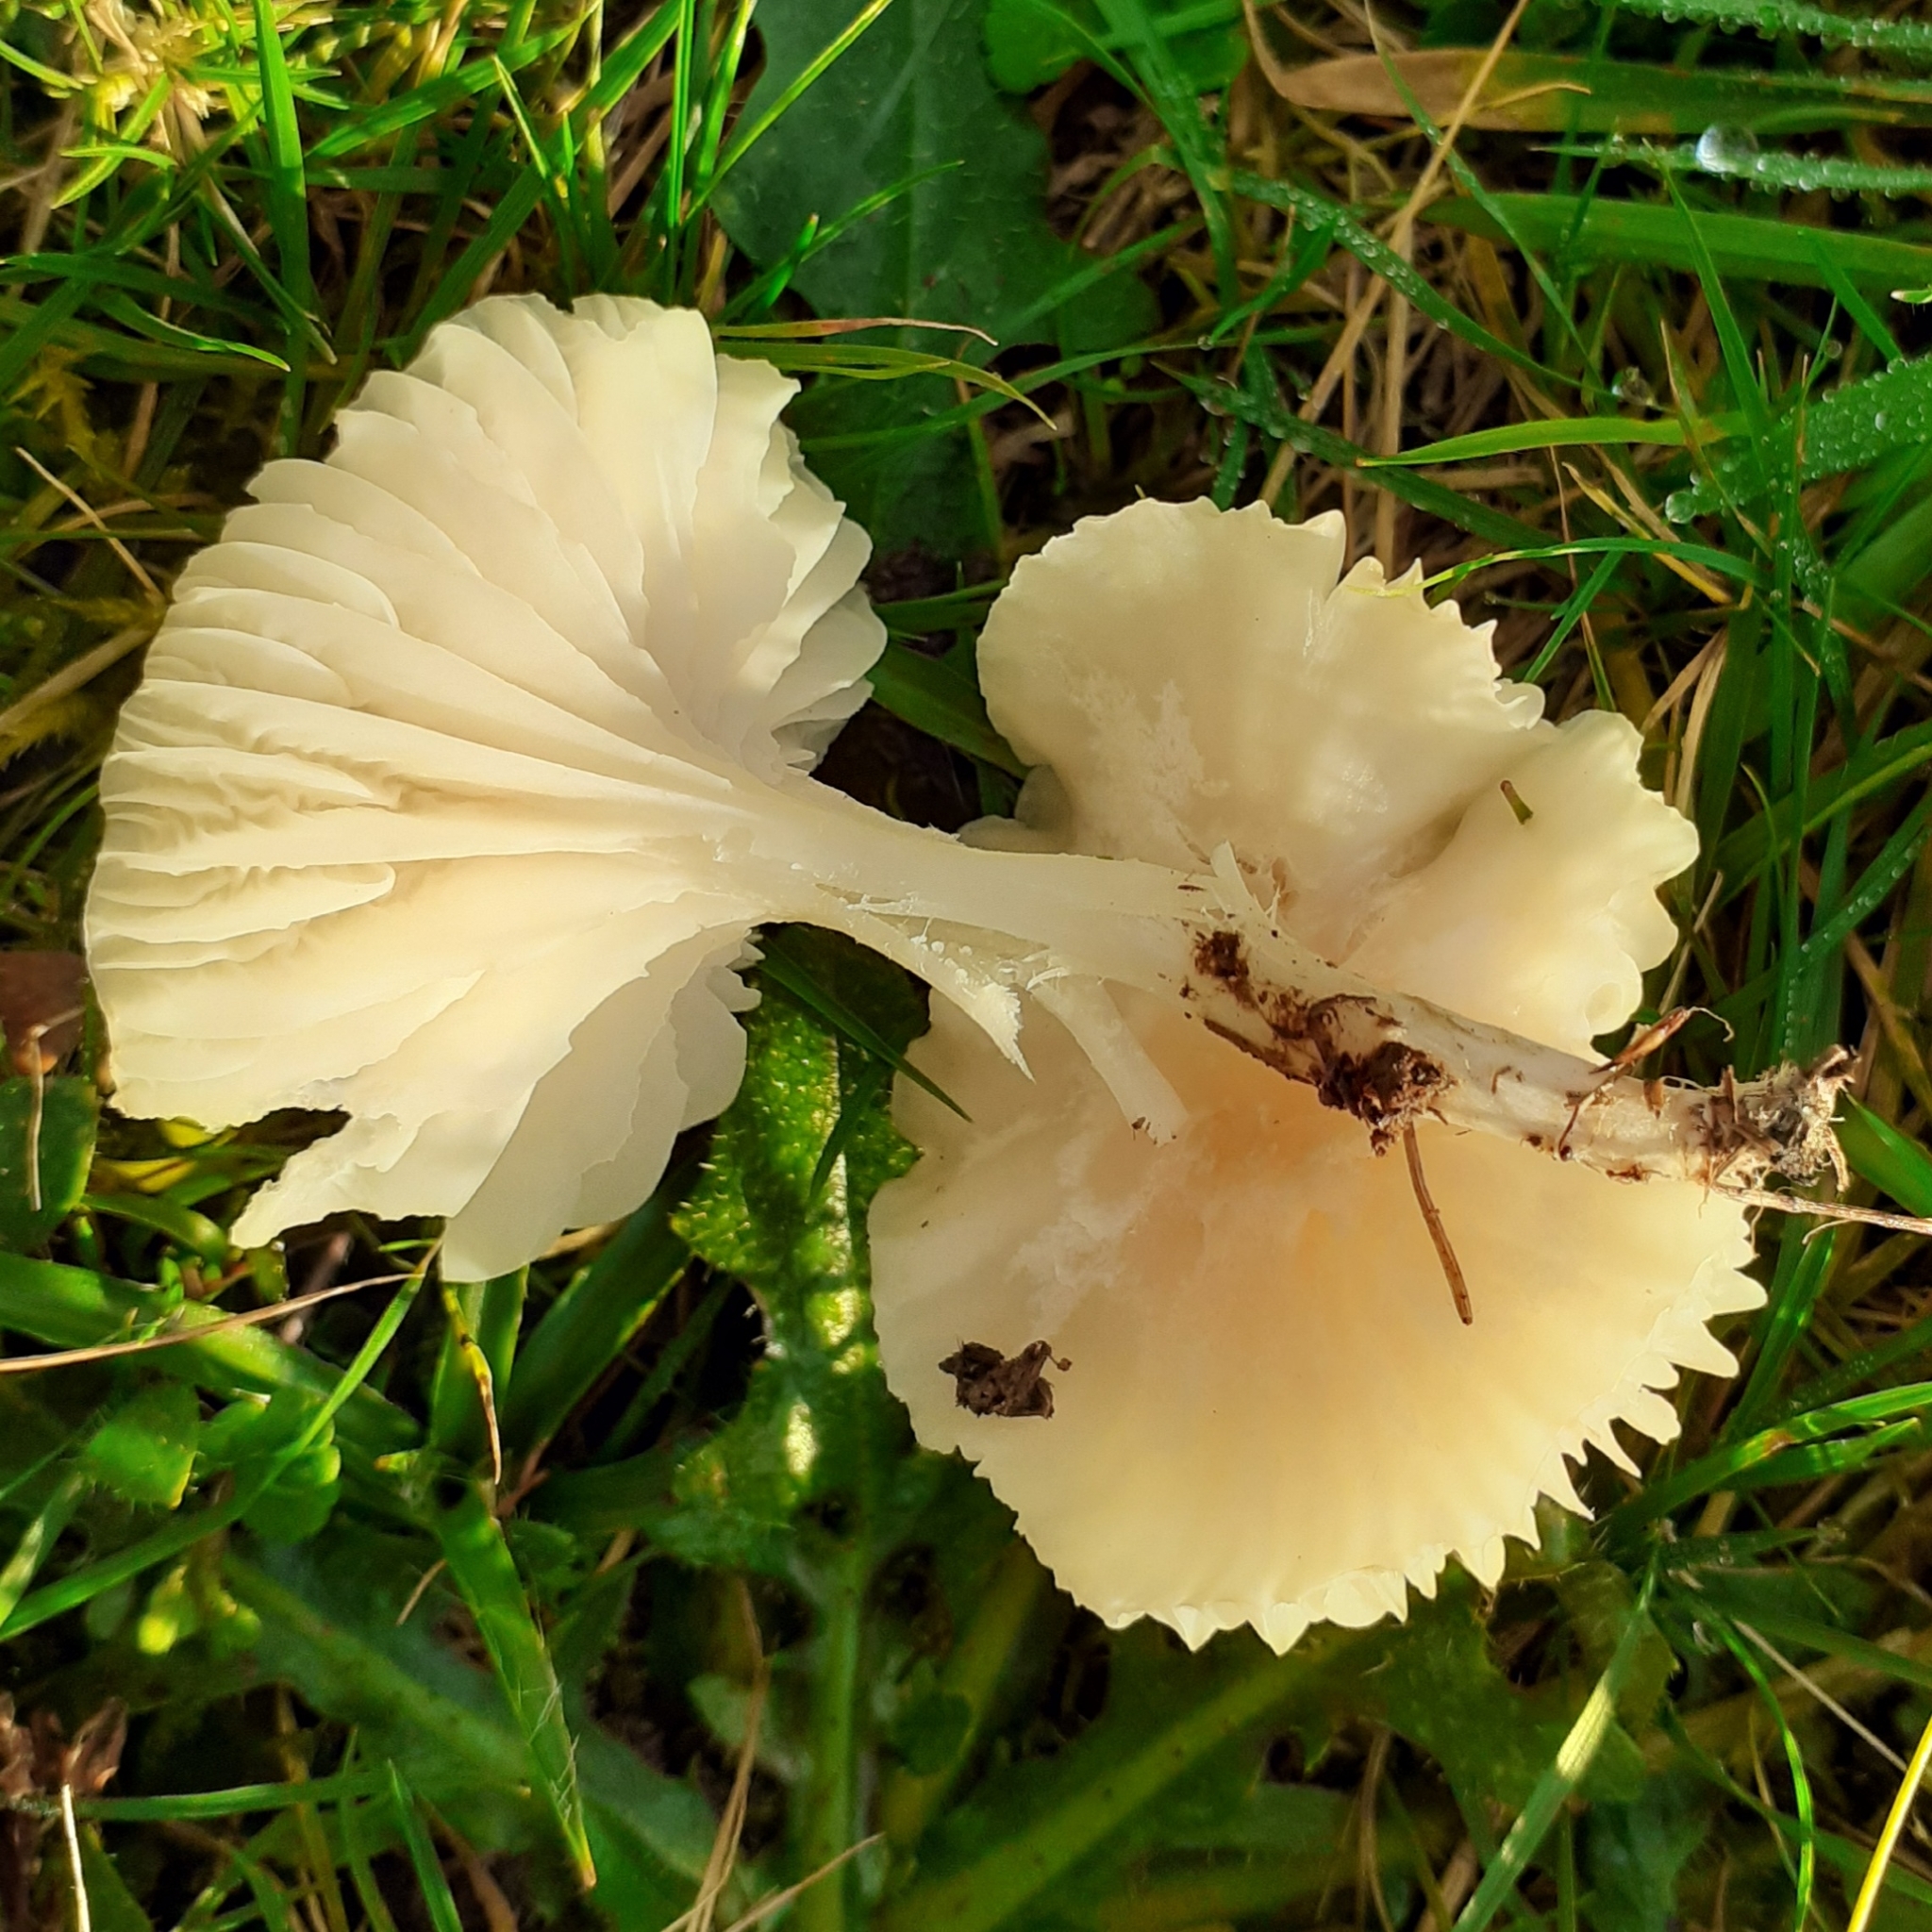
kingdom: Fungi
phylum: Basidiomycota
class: Agaricomycetes
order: Agaricales
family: Hygrophoraceae
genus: Cuphophyllus
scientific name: Cuphophyllus virgineus
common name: Snowy waxcap
